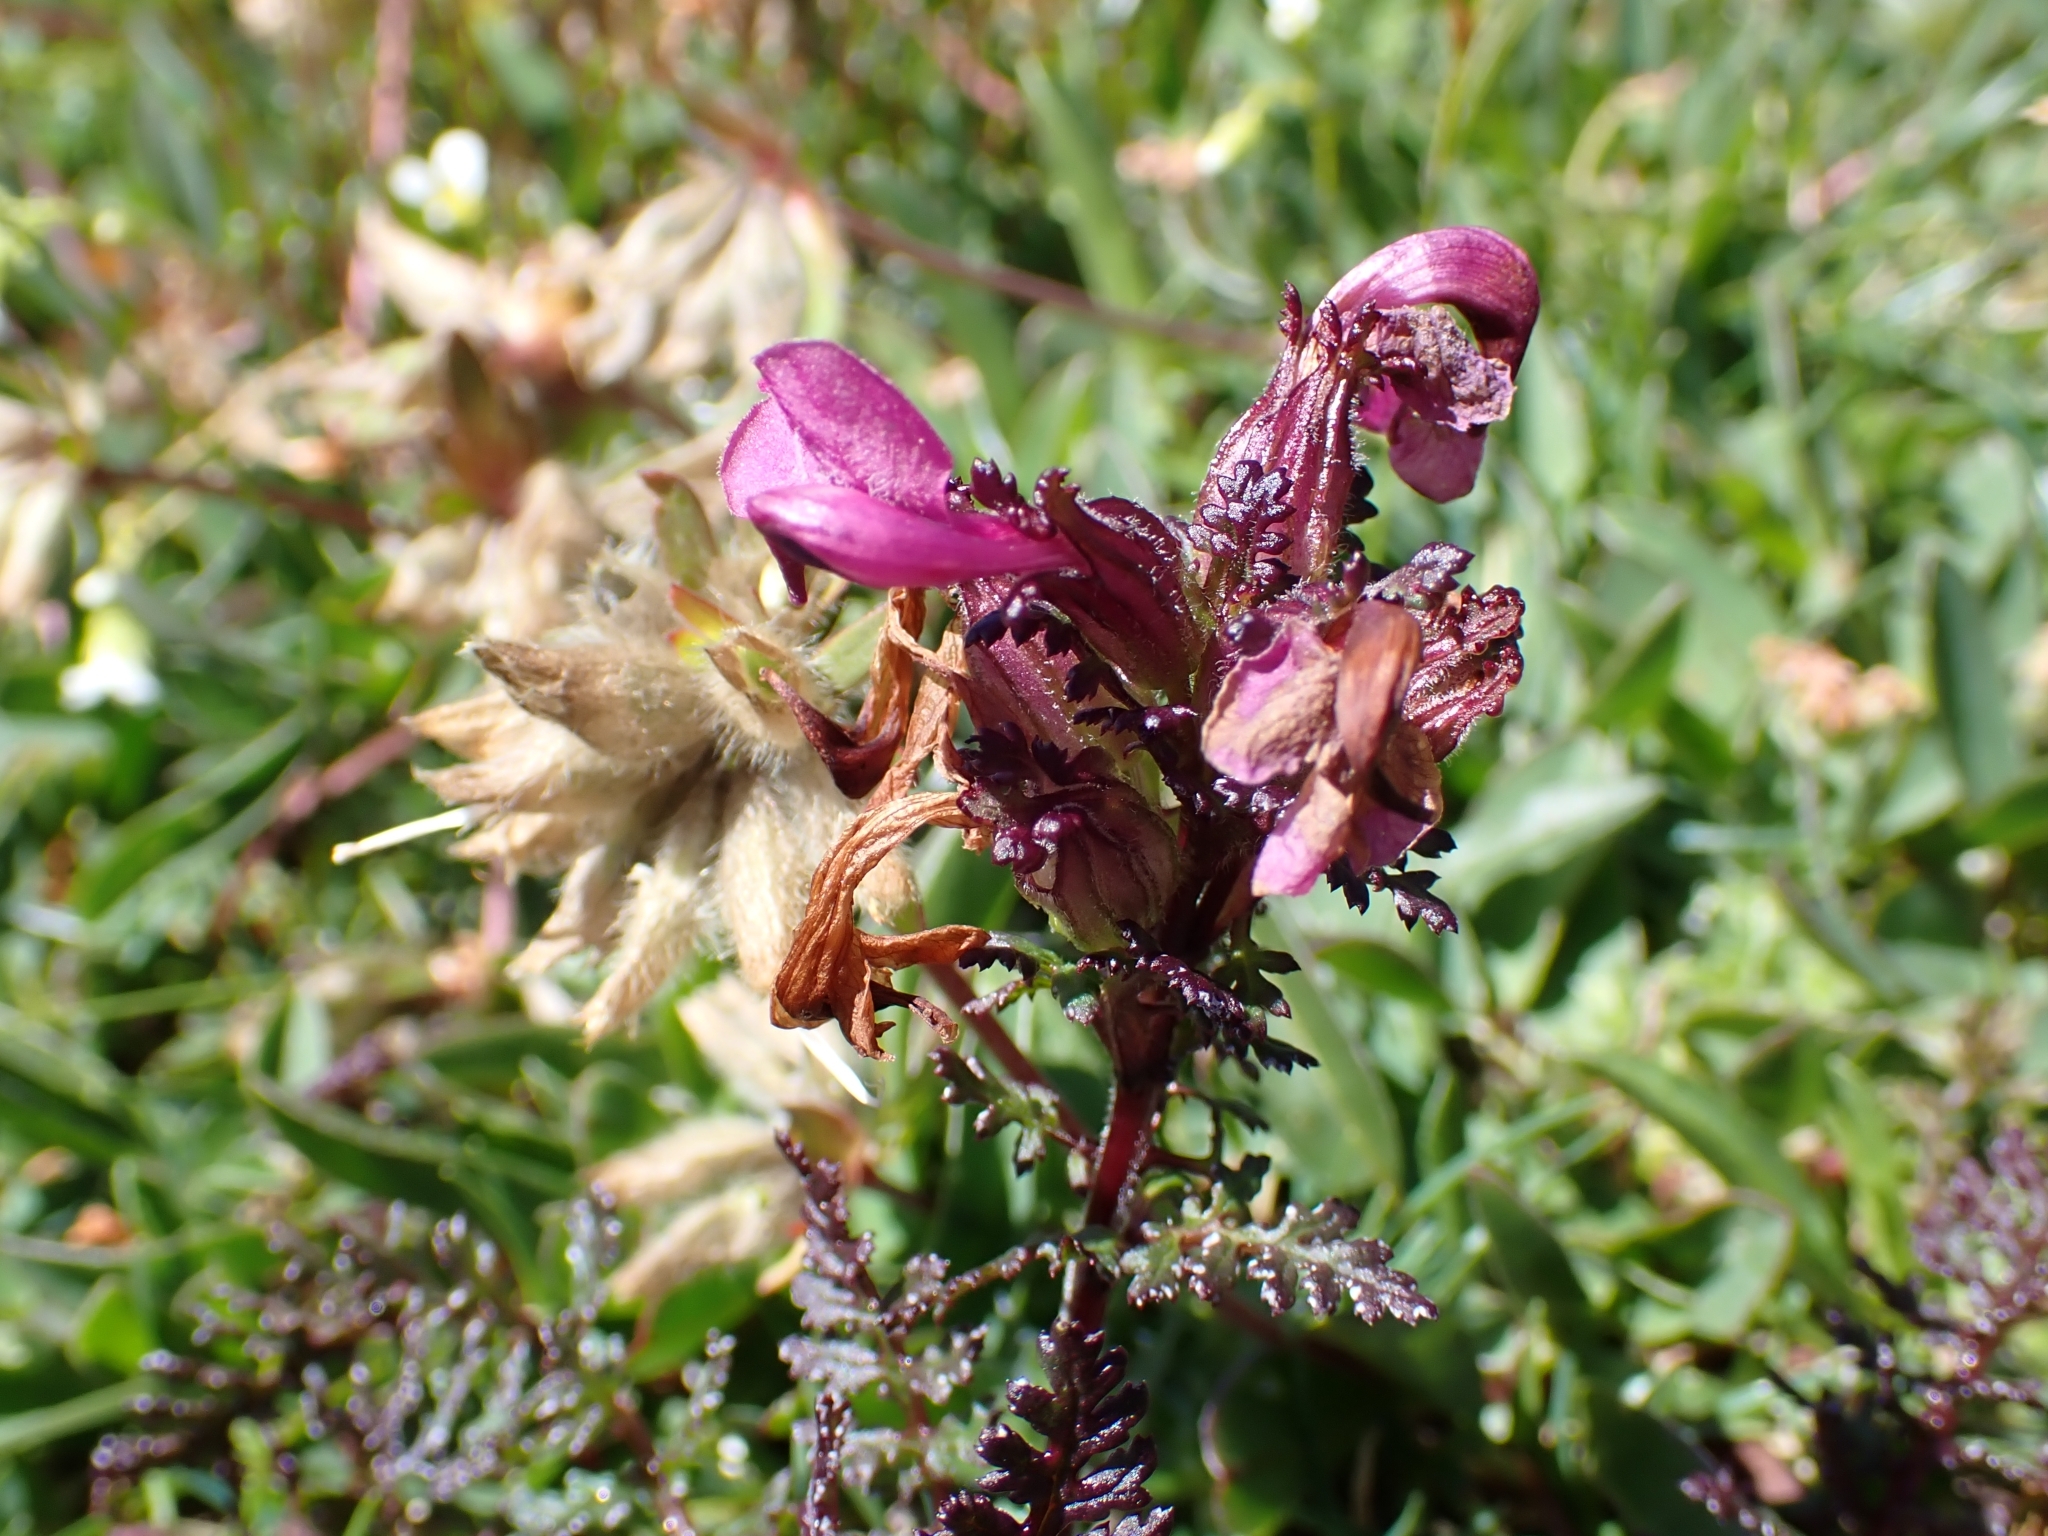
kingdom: Plantae
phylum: Tracheophyta
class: Magnoliopsida
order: Lamiales
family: Orobanchaceae
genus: Pedicularis
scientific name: Pedicularis rostratocapitata
